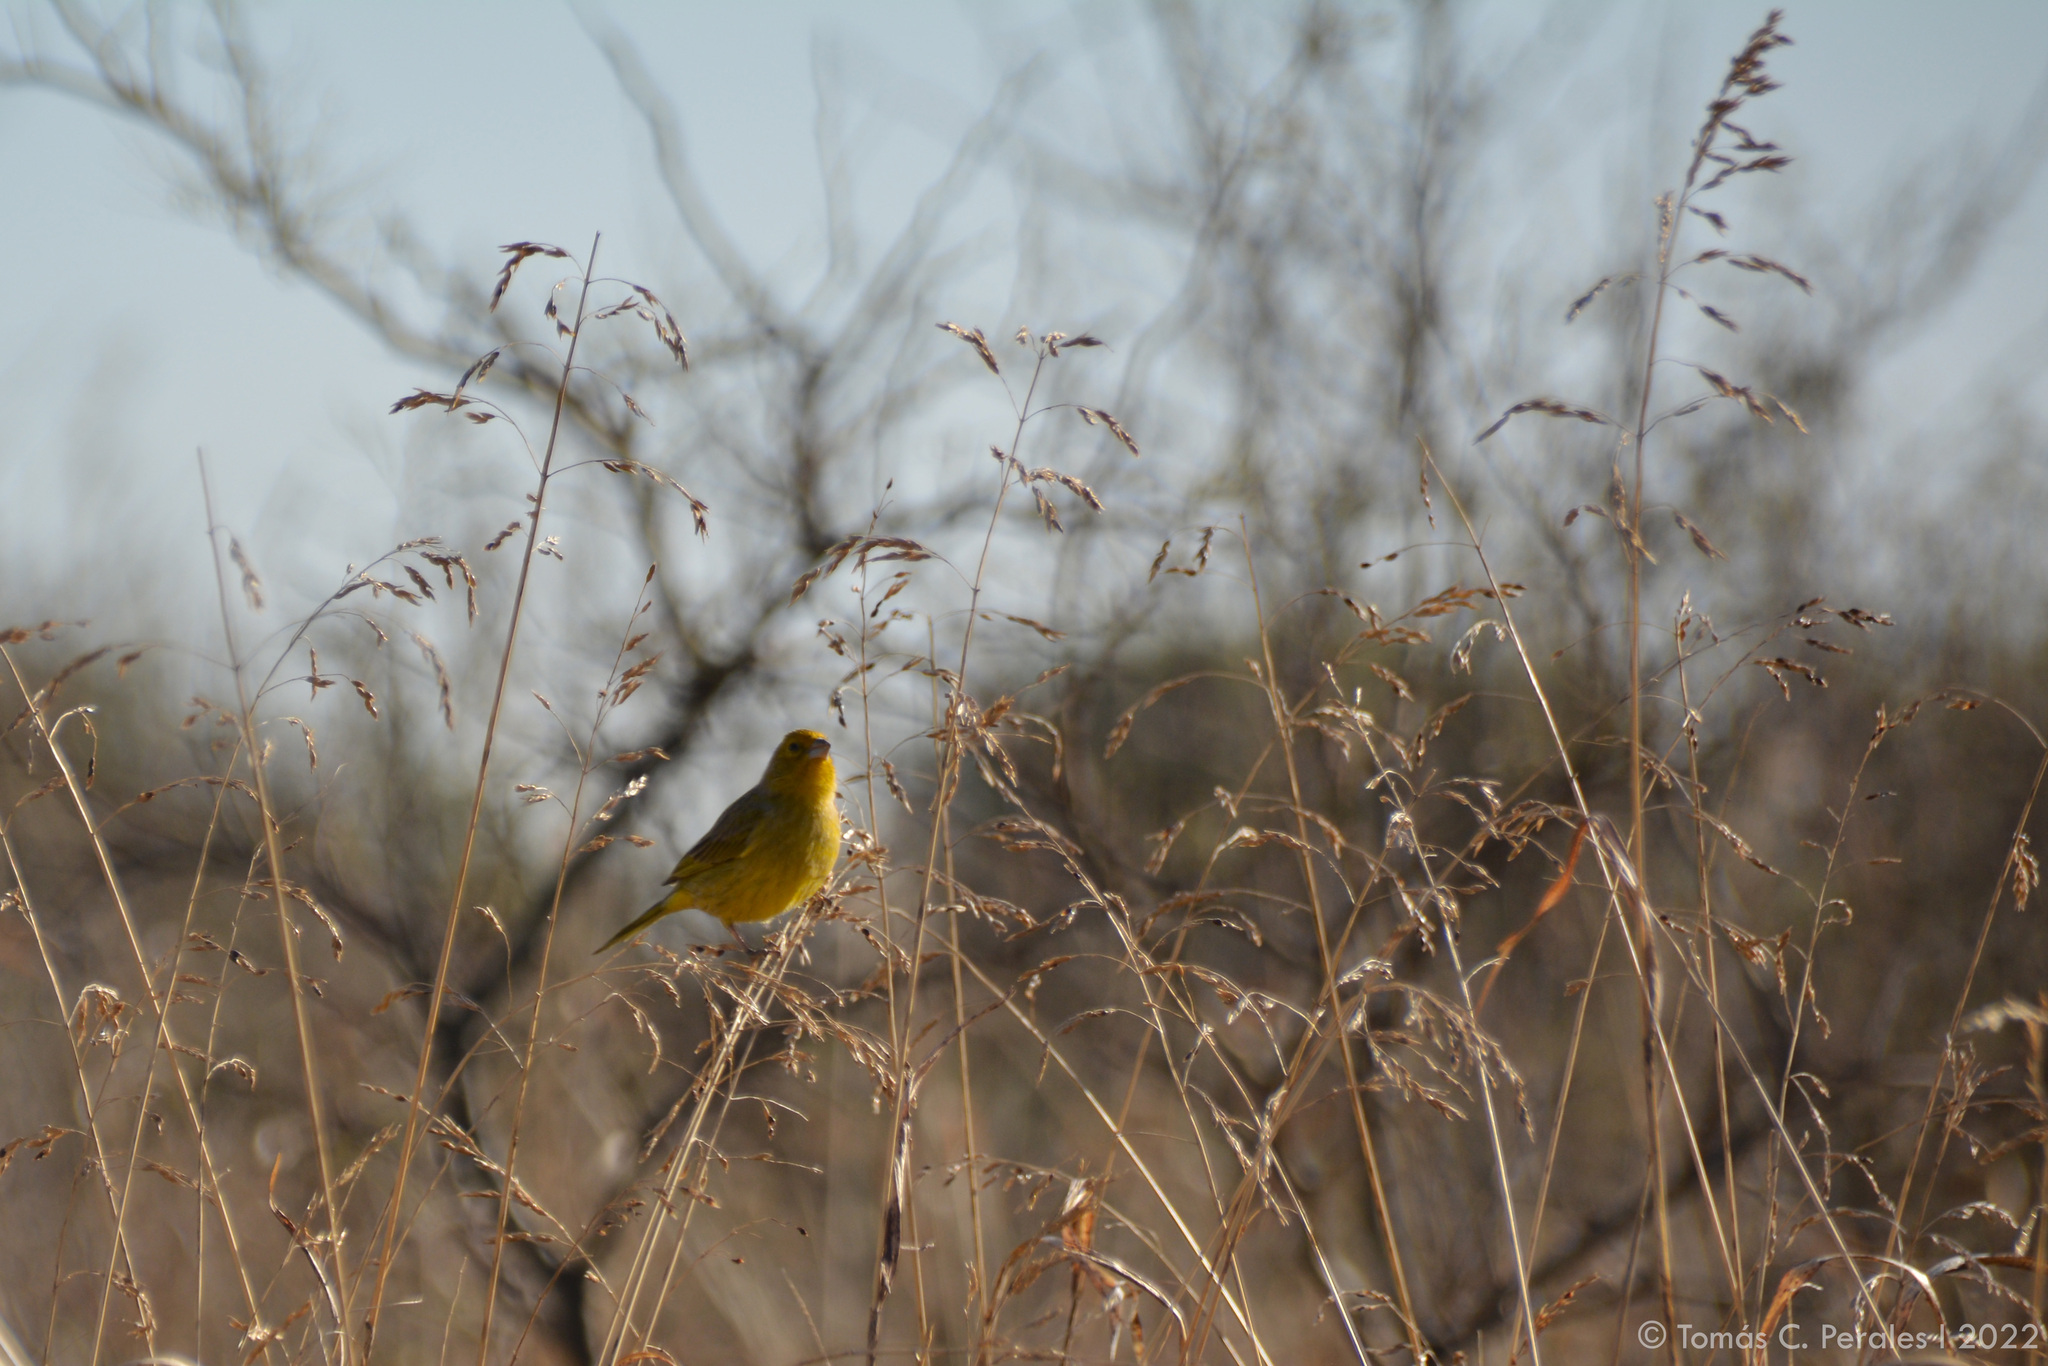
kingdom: Animalia
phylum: Chordata
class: Aves
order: Passeriformes
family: Thraupidae
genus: Sicalis
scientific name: Sicalis flaveola
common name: Saffron finch
